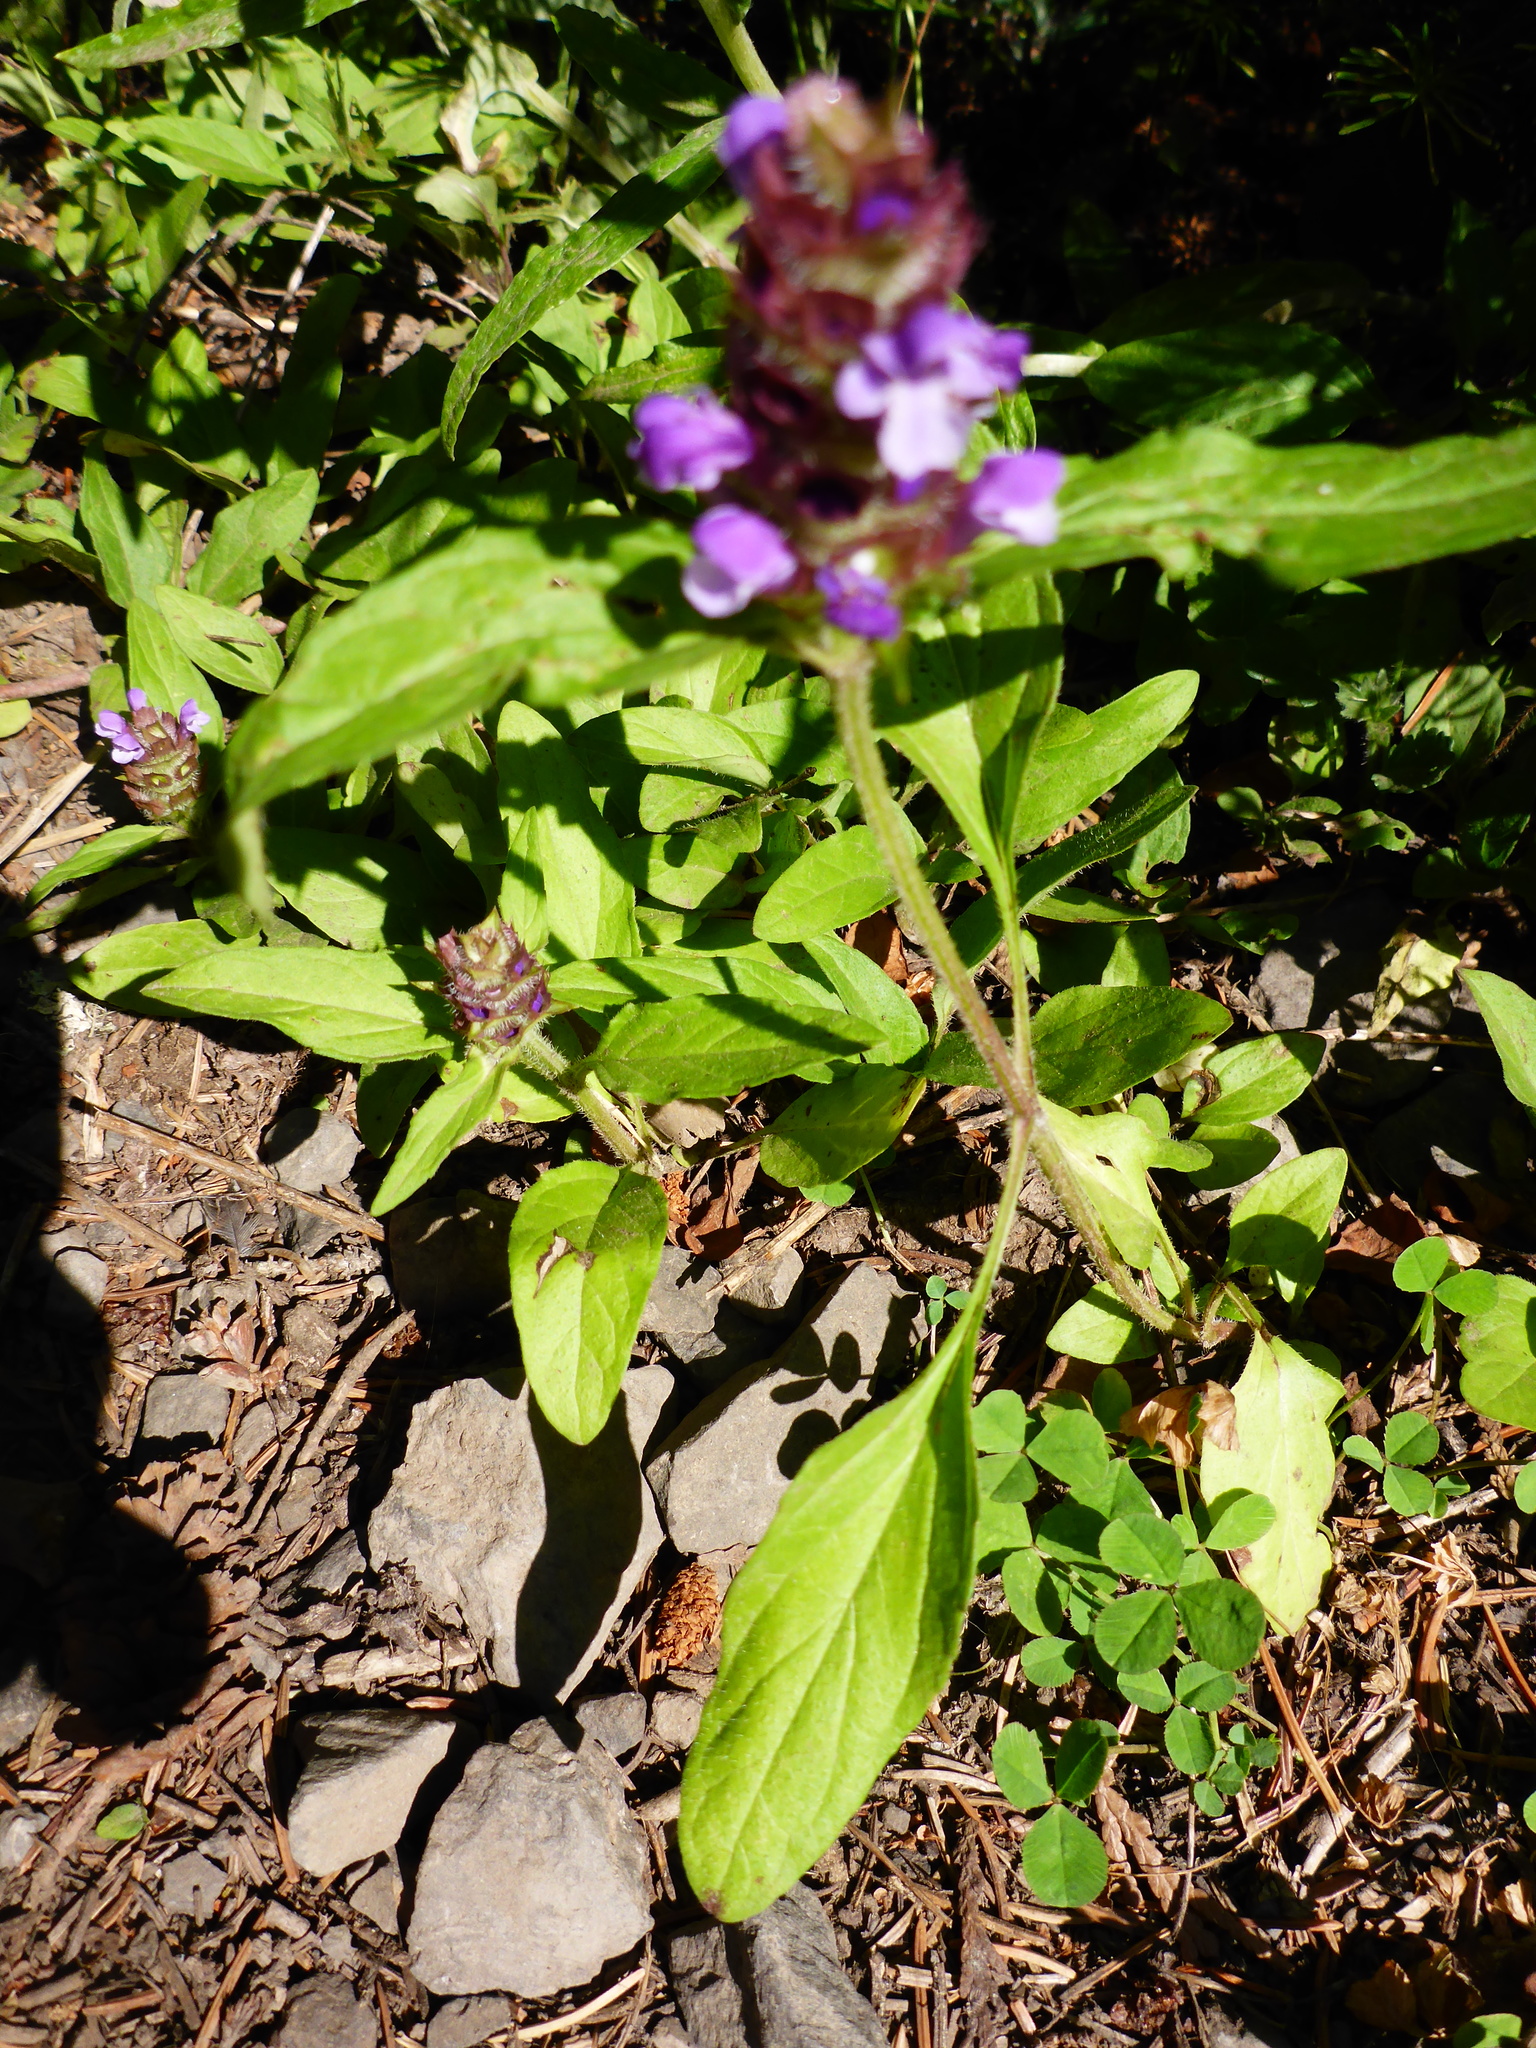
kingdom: Plantae
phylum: Tracheophyta
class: Magnoliopsida
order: Lamiales
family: Lamiaceae
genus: Prunella
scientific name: Prunella vulgaris
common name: Heal-all
